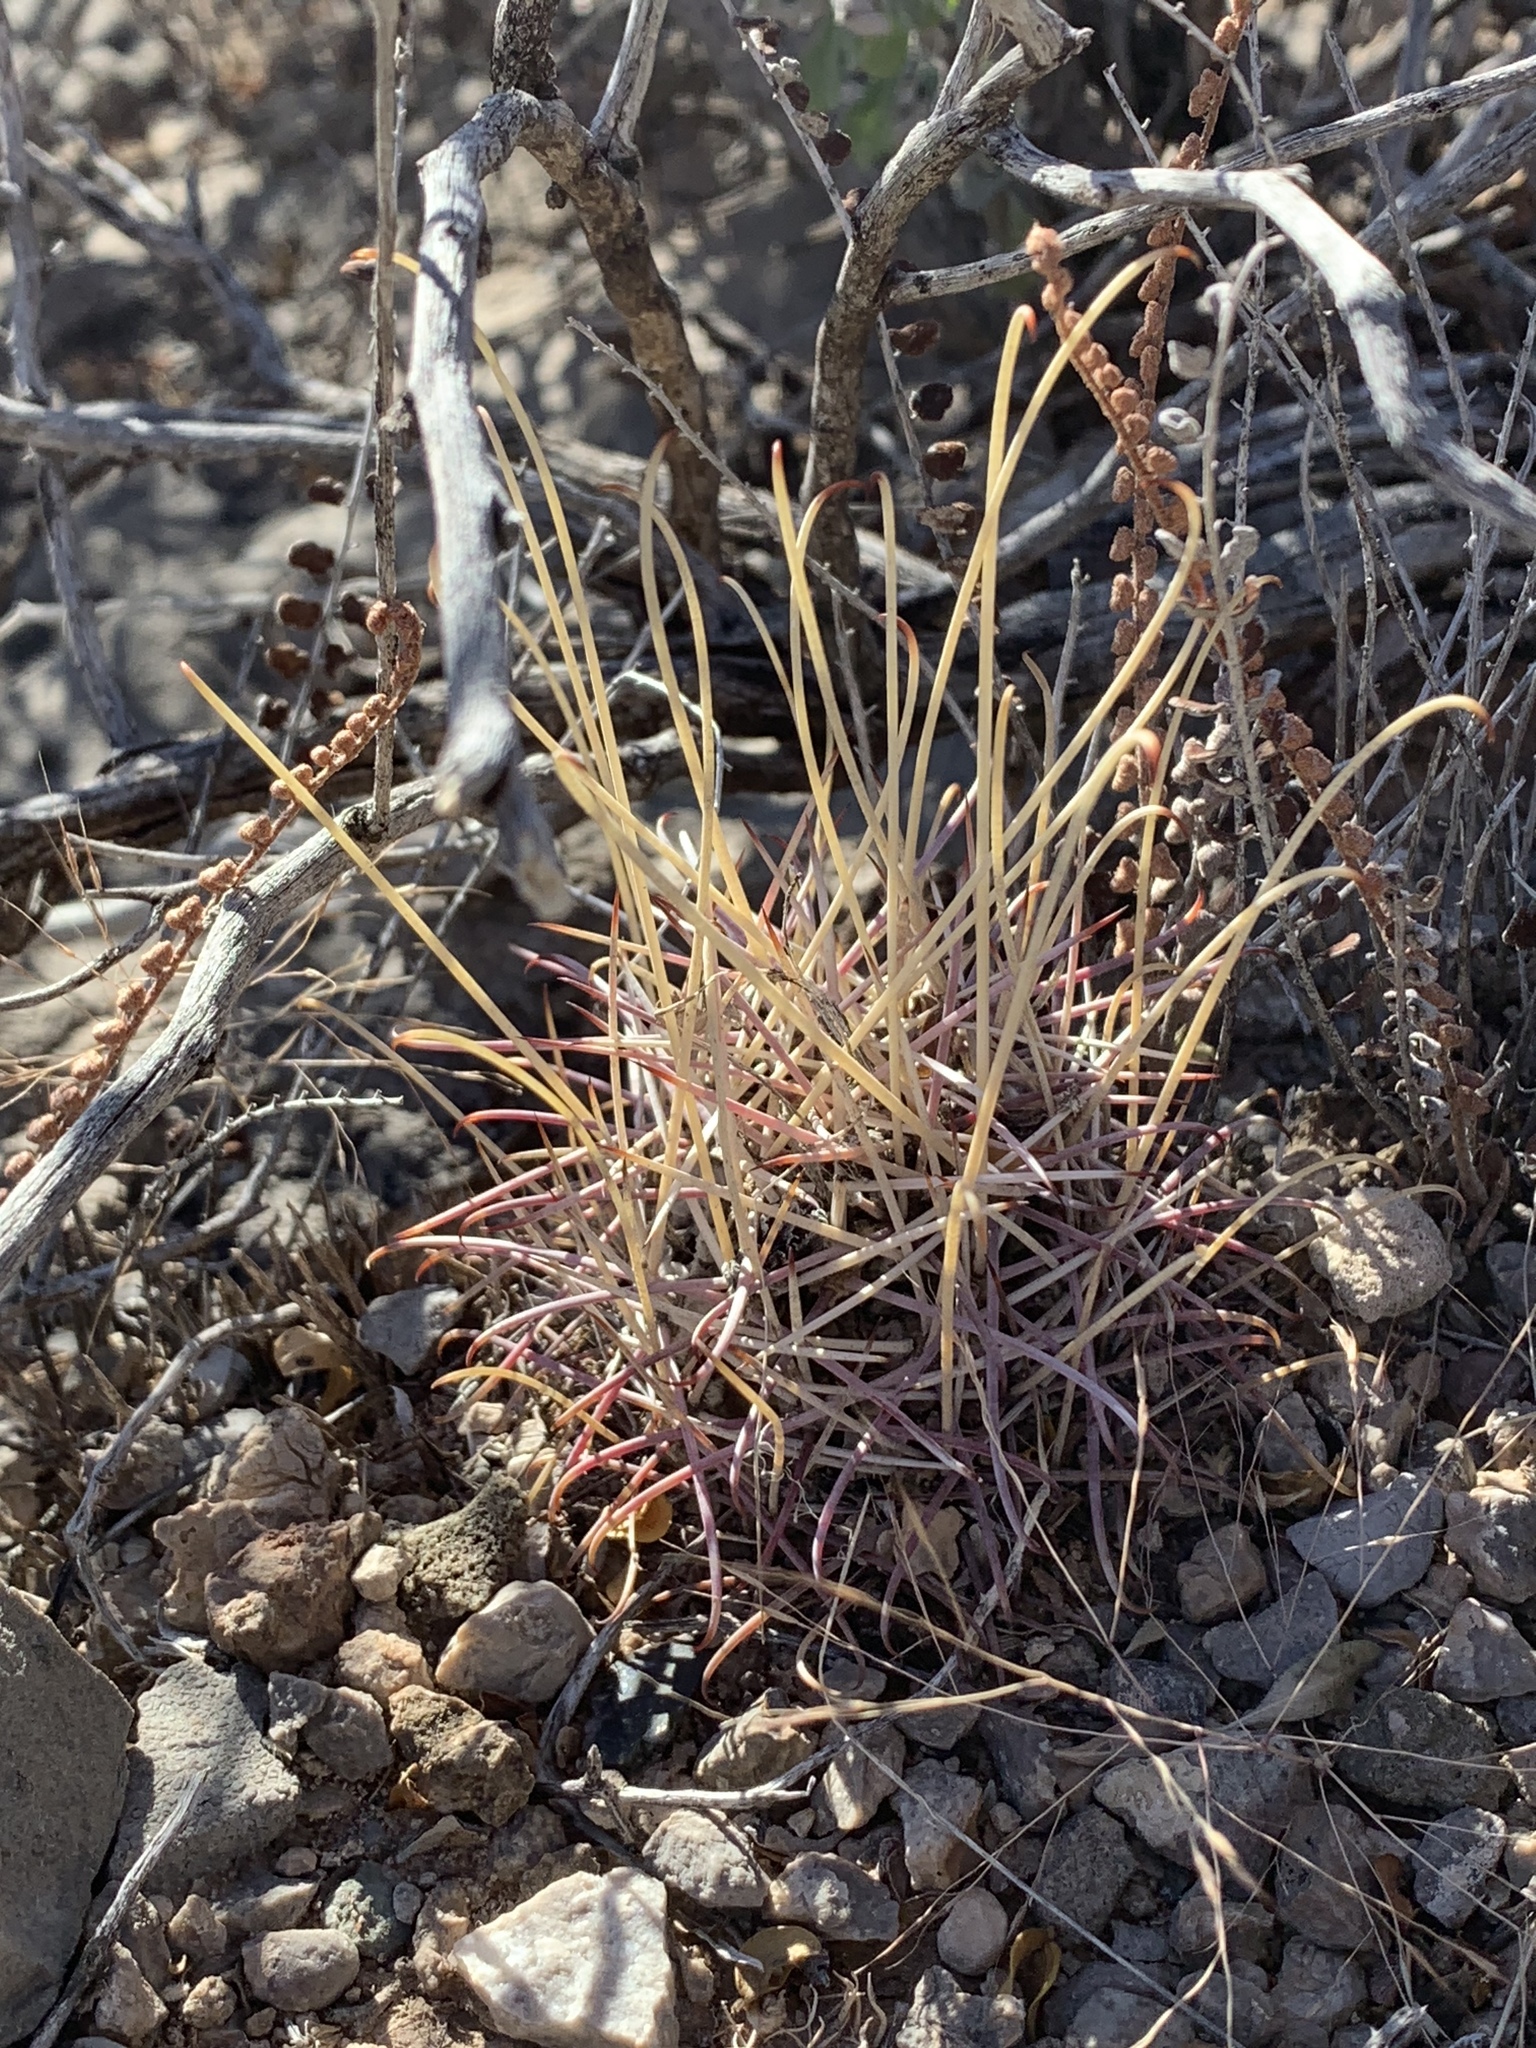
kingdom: Plantae
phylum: Tracheophyta
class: Magnoliopsida
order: Caryophyllales
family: Cactaceae
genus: Ferocactus
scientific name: Ferocactus uncinatus
